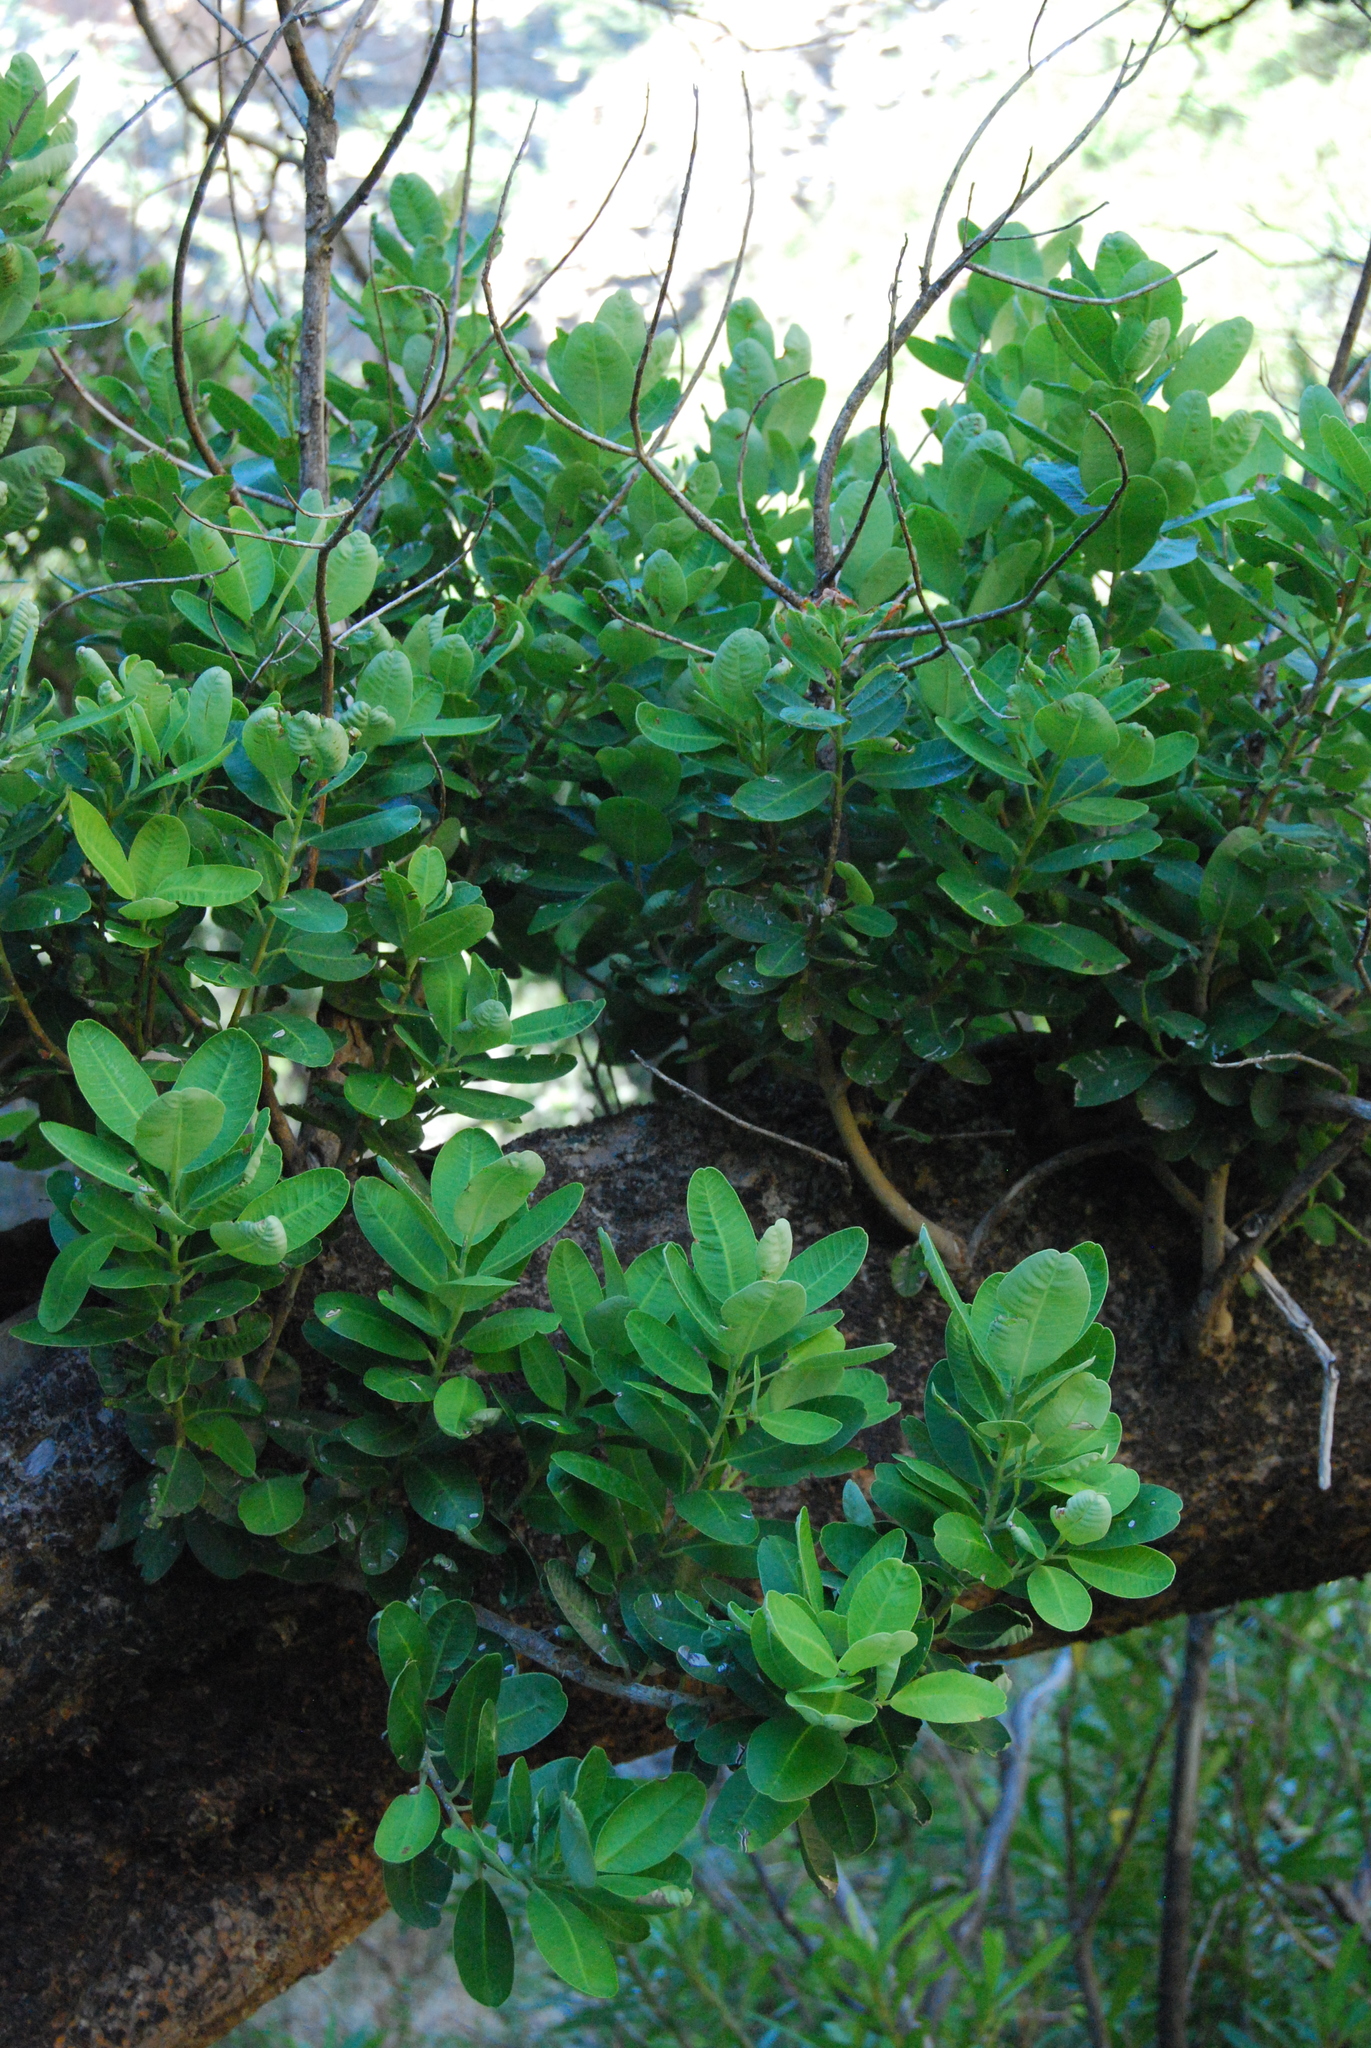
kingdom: Plantae
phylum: Tracheophyta
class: Magnoliopsida
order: Sapindales
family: Anacardiaceae
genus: Heeria
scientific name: Heeria argentea
